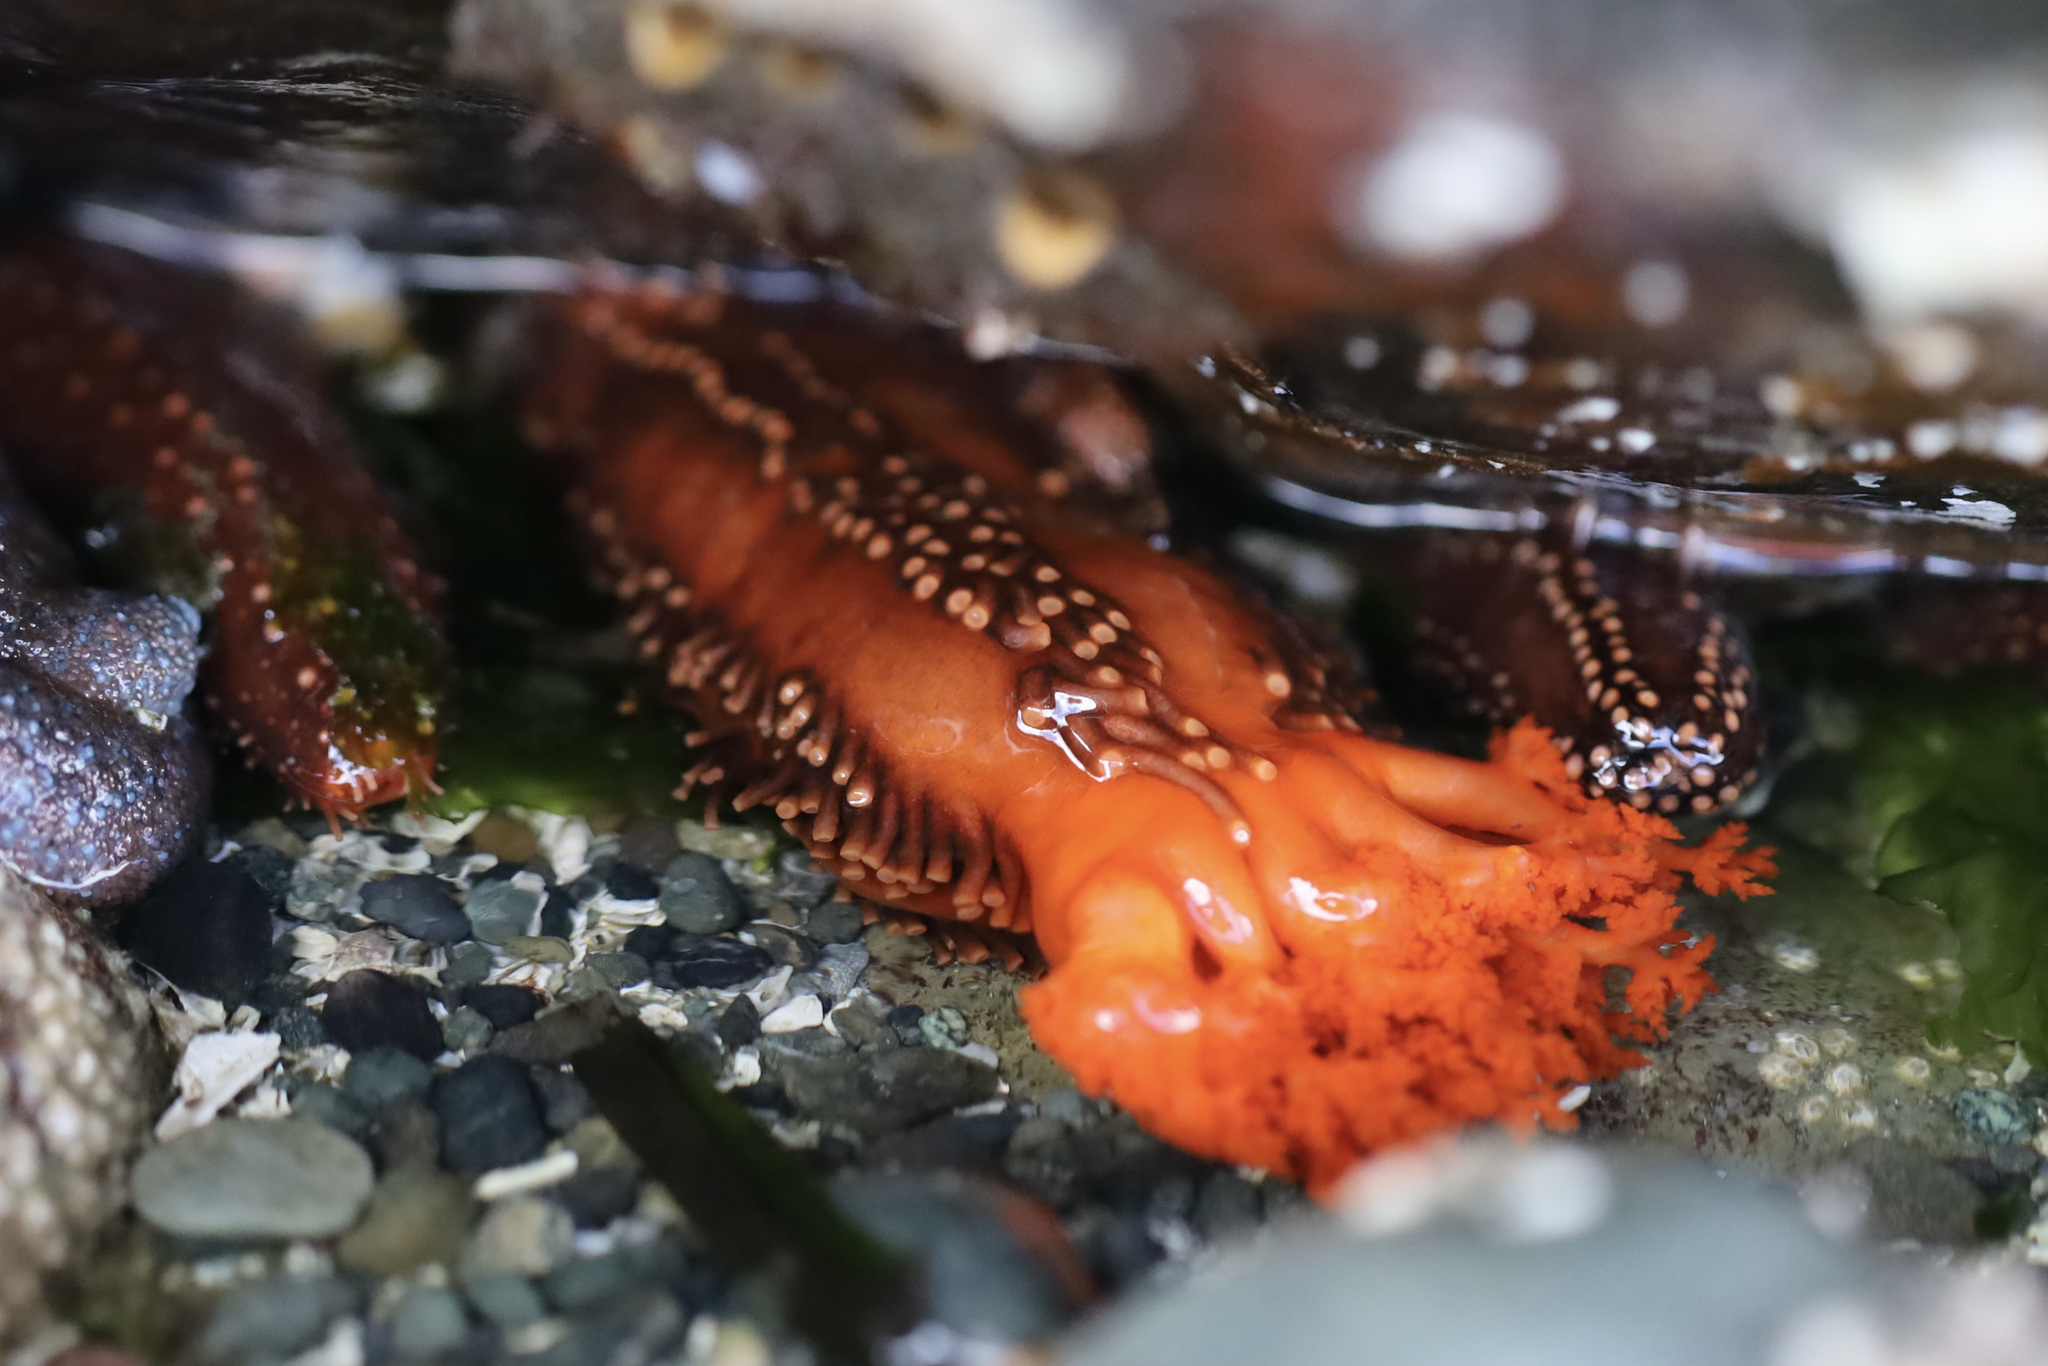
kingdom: Animalia
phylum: Echinodermata
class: Holothuroidea
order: Dendrochirotida
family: Cucumariidae
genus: Cucumaria
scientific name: Cucumaria miniata
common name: Orange sea cucumber
